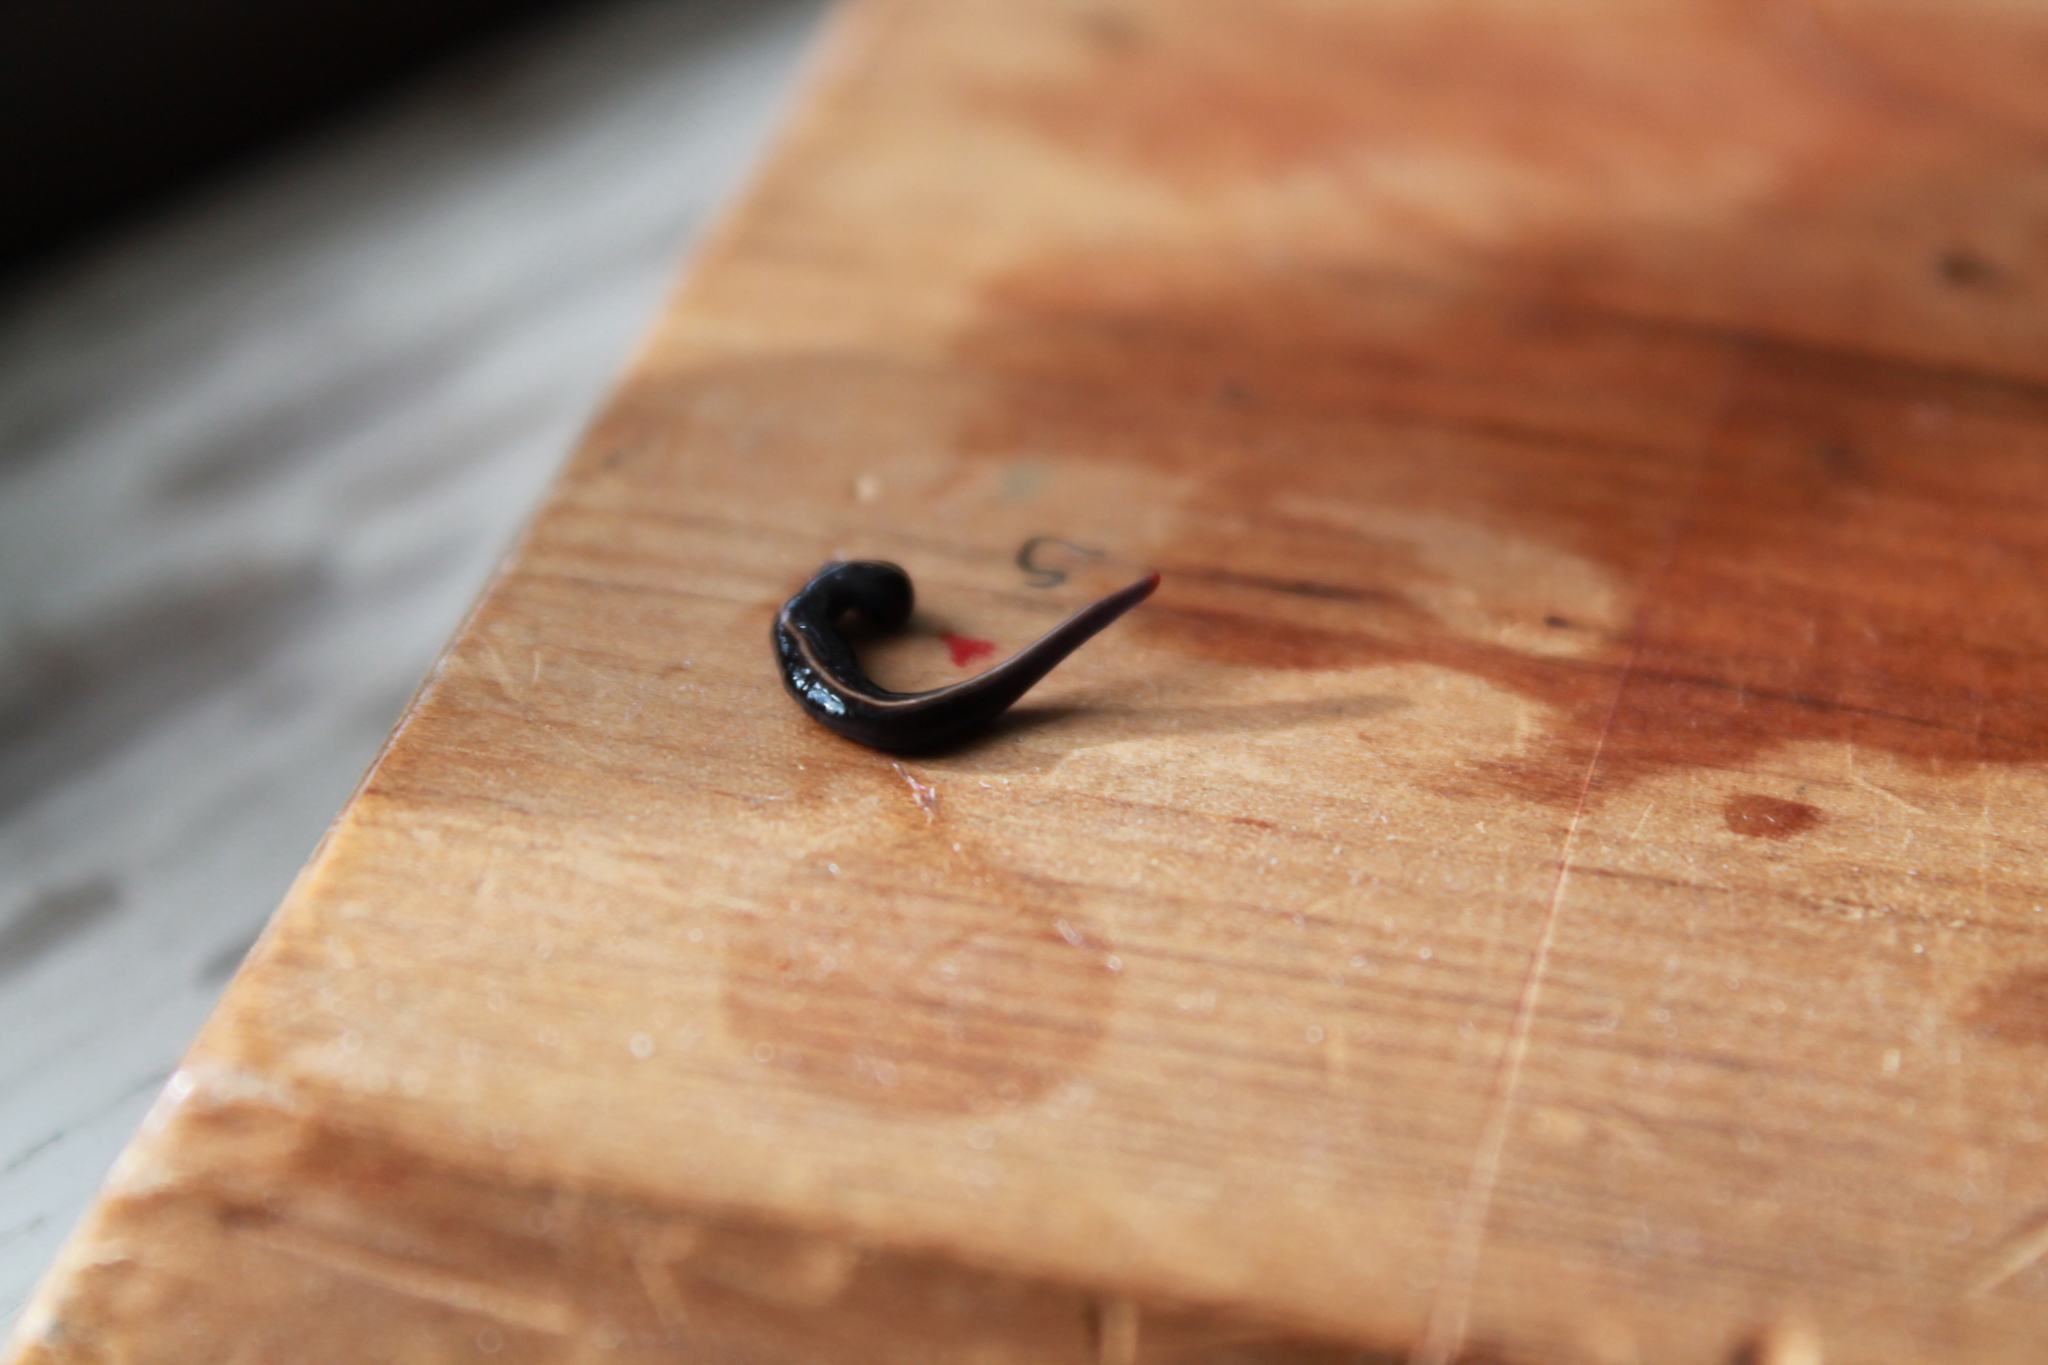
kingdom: Animalia
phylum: Platyhelminthes
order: Tricladida
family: Geoplanidae
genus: Caenoplana
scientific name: Caenoplana coerulea
